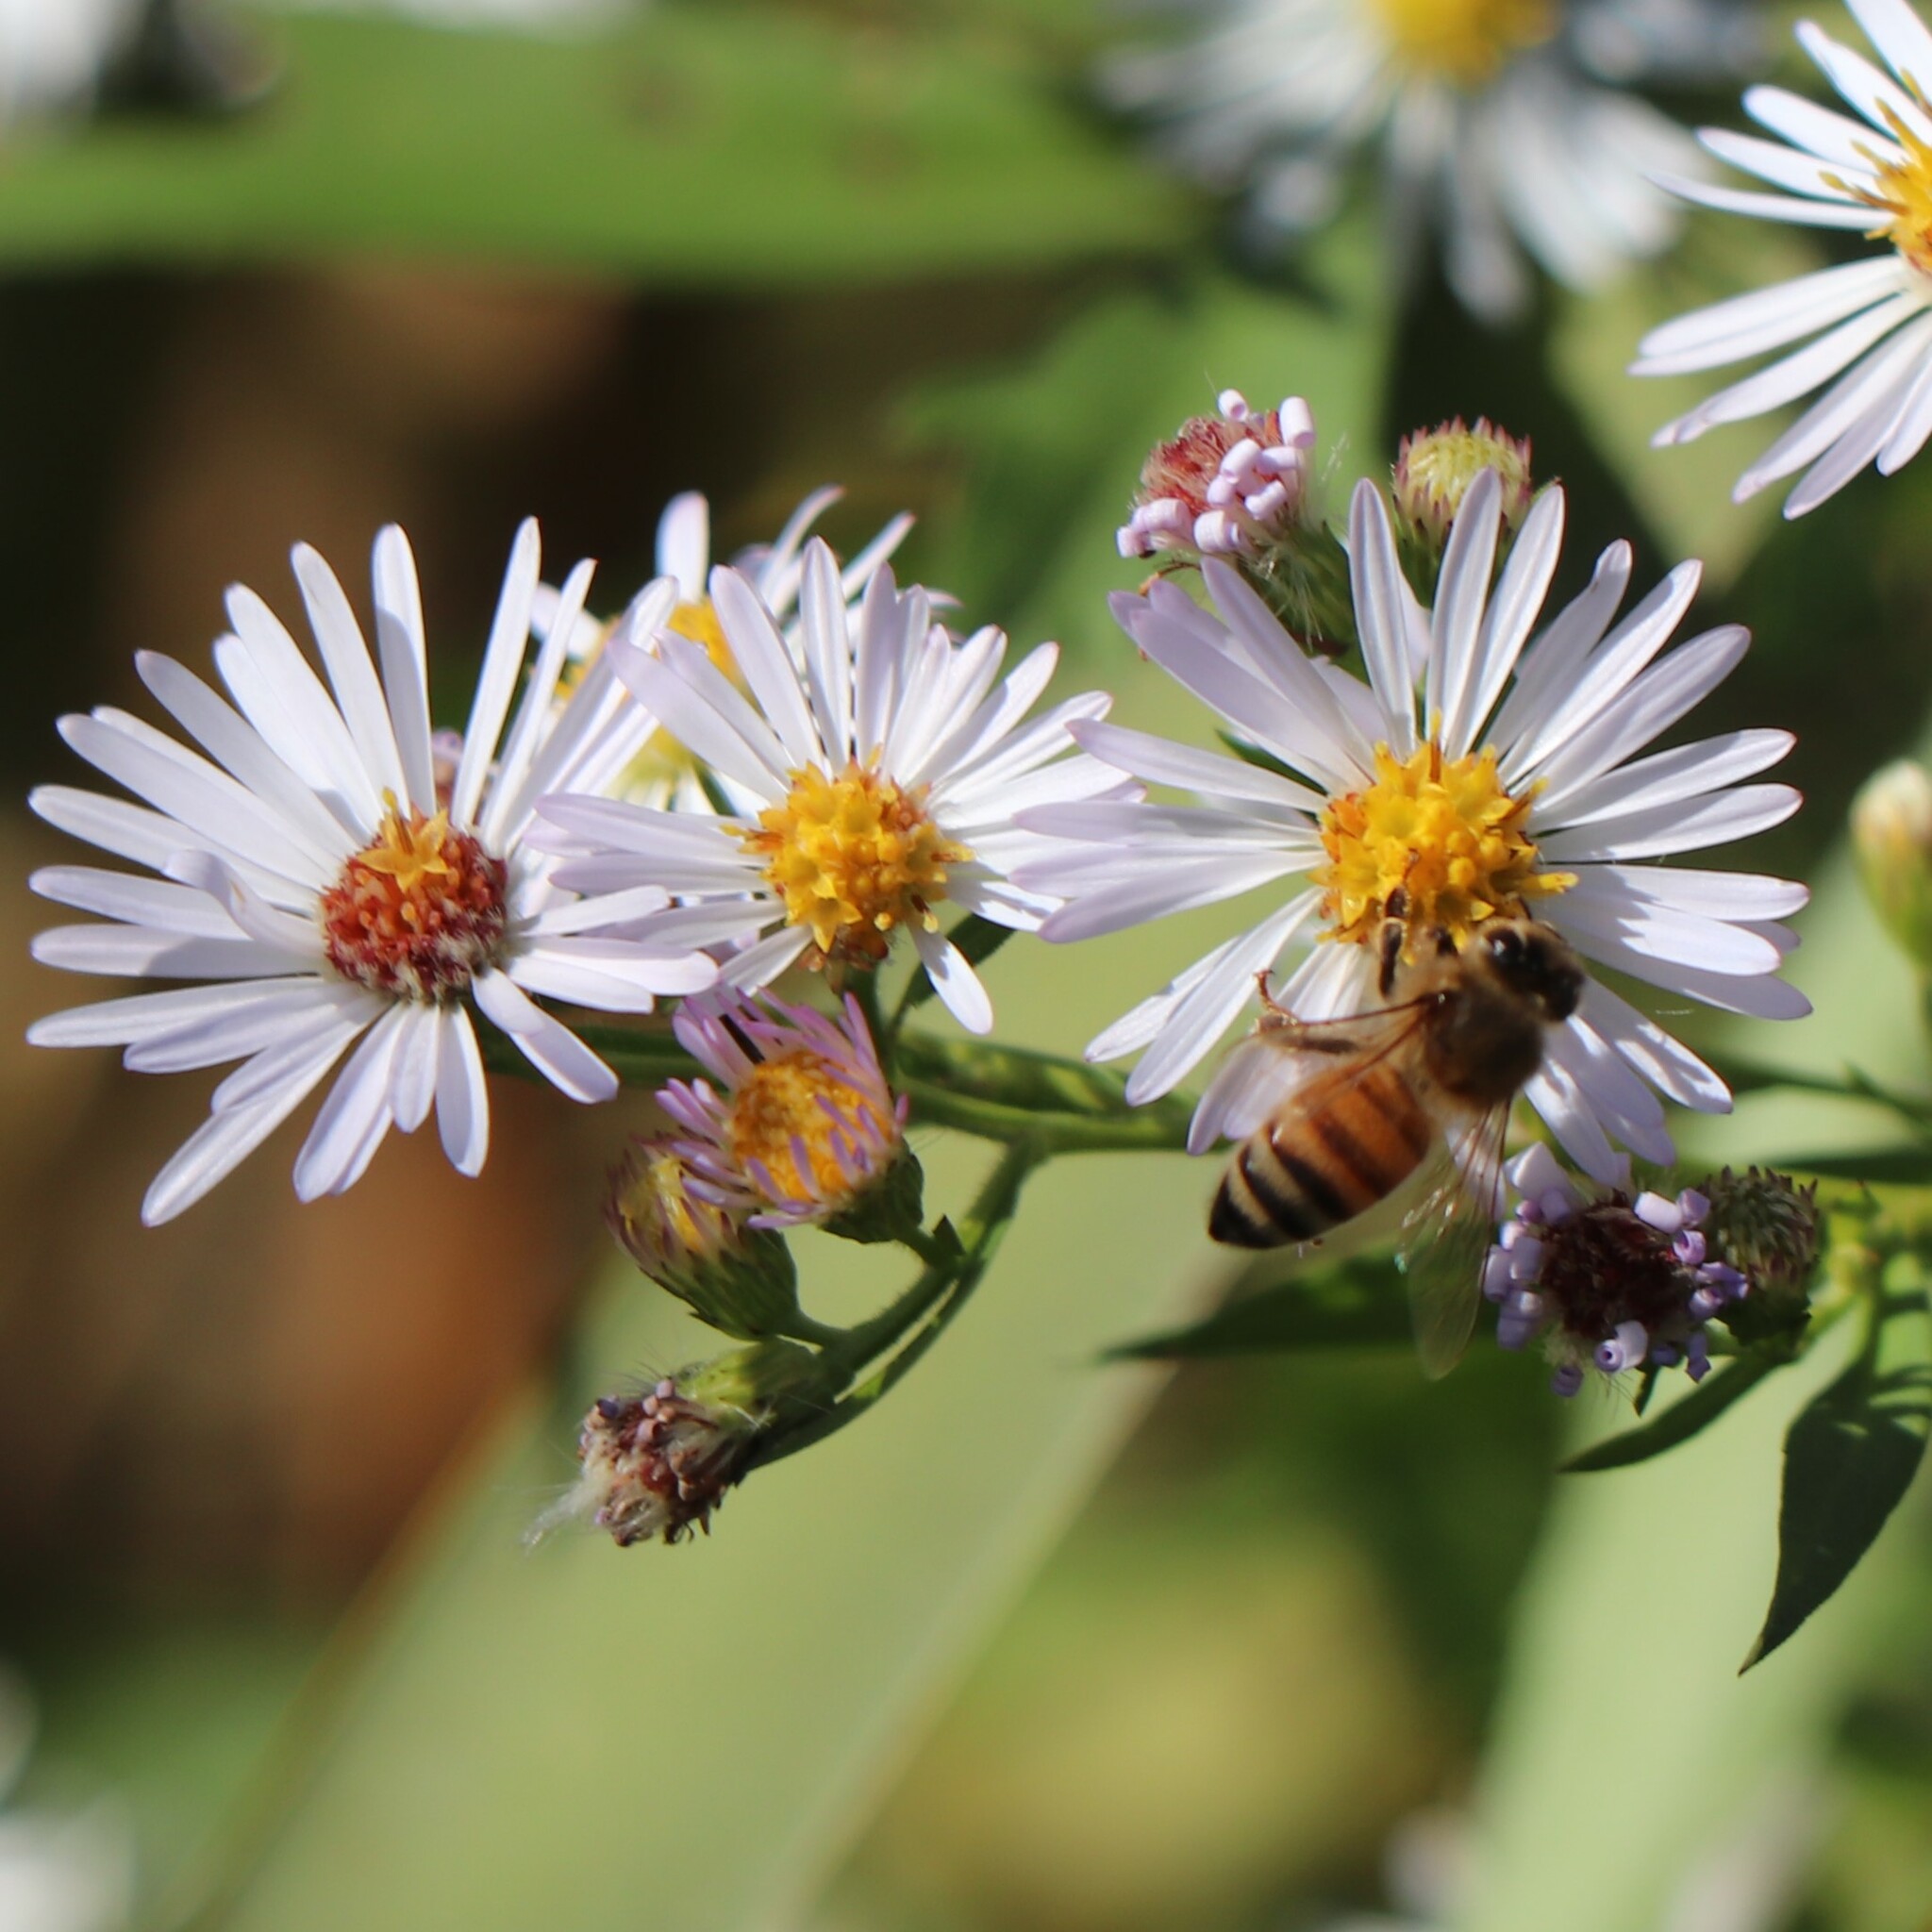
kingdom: Animalia
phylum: Arthropoda
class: Insecta
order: Hymenoptera
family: Apidae
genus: Apis
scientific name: Apis mellifera
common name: Honey bee
